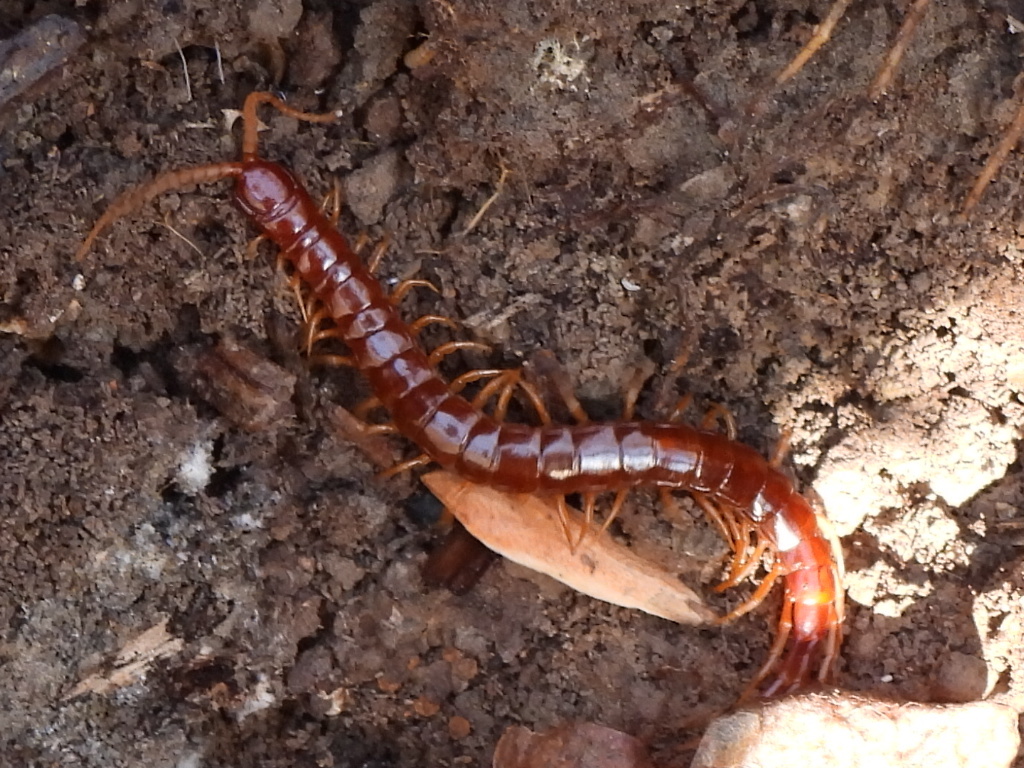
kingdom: Animalia
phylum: Arthropoda
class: Chilopoda
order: Scolopendromorpha
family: Scolopocryptopidae
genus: Scolopocryptops
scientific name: Scolopocryptops sexspinosus
